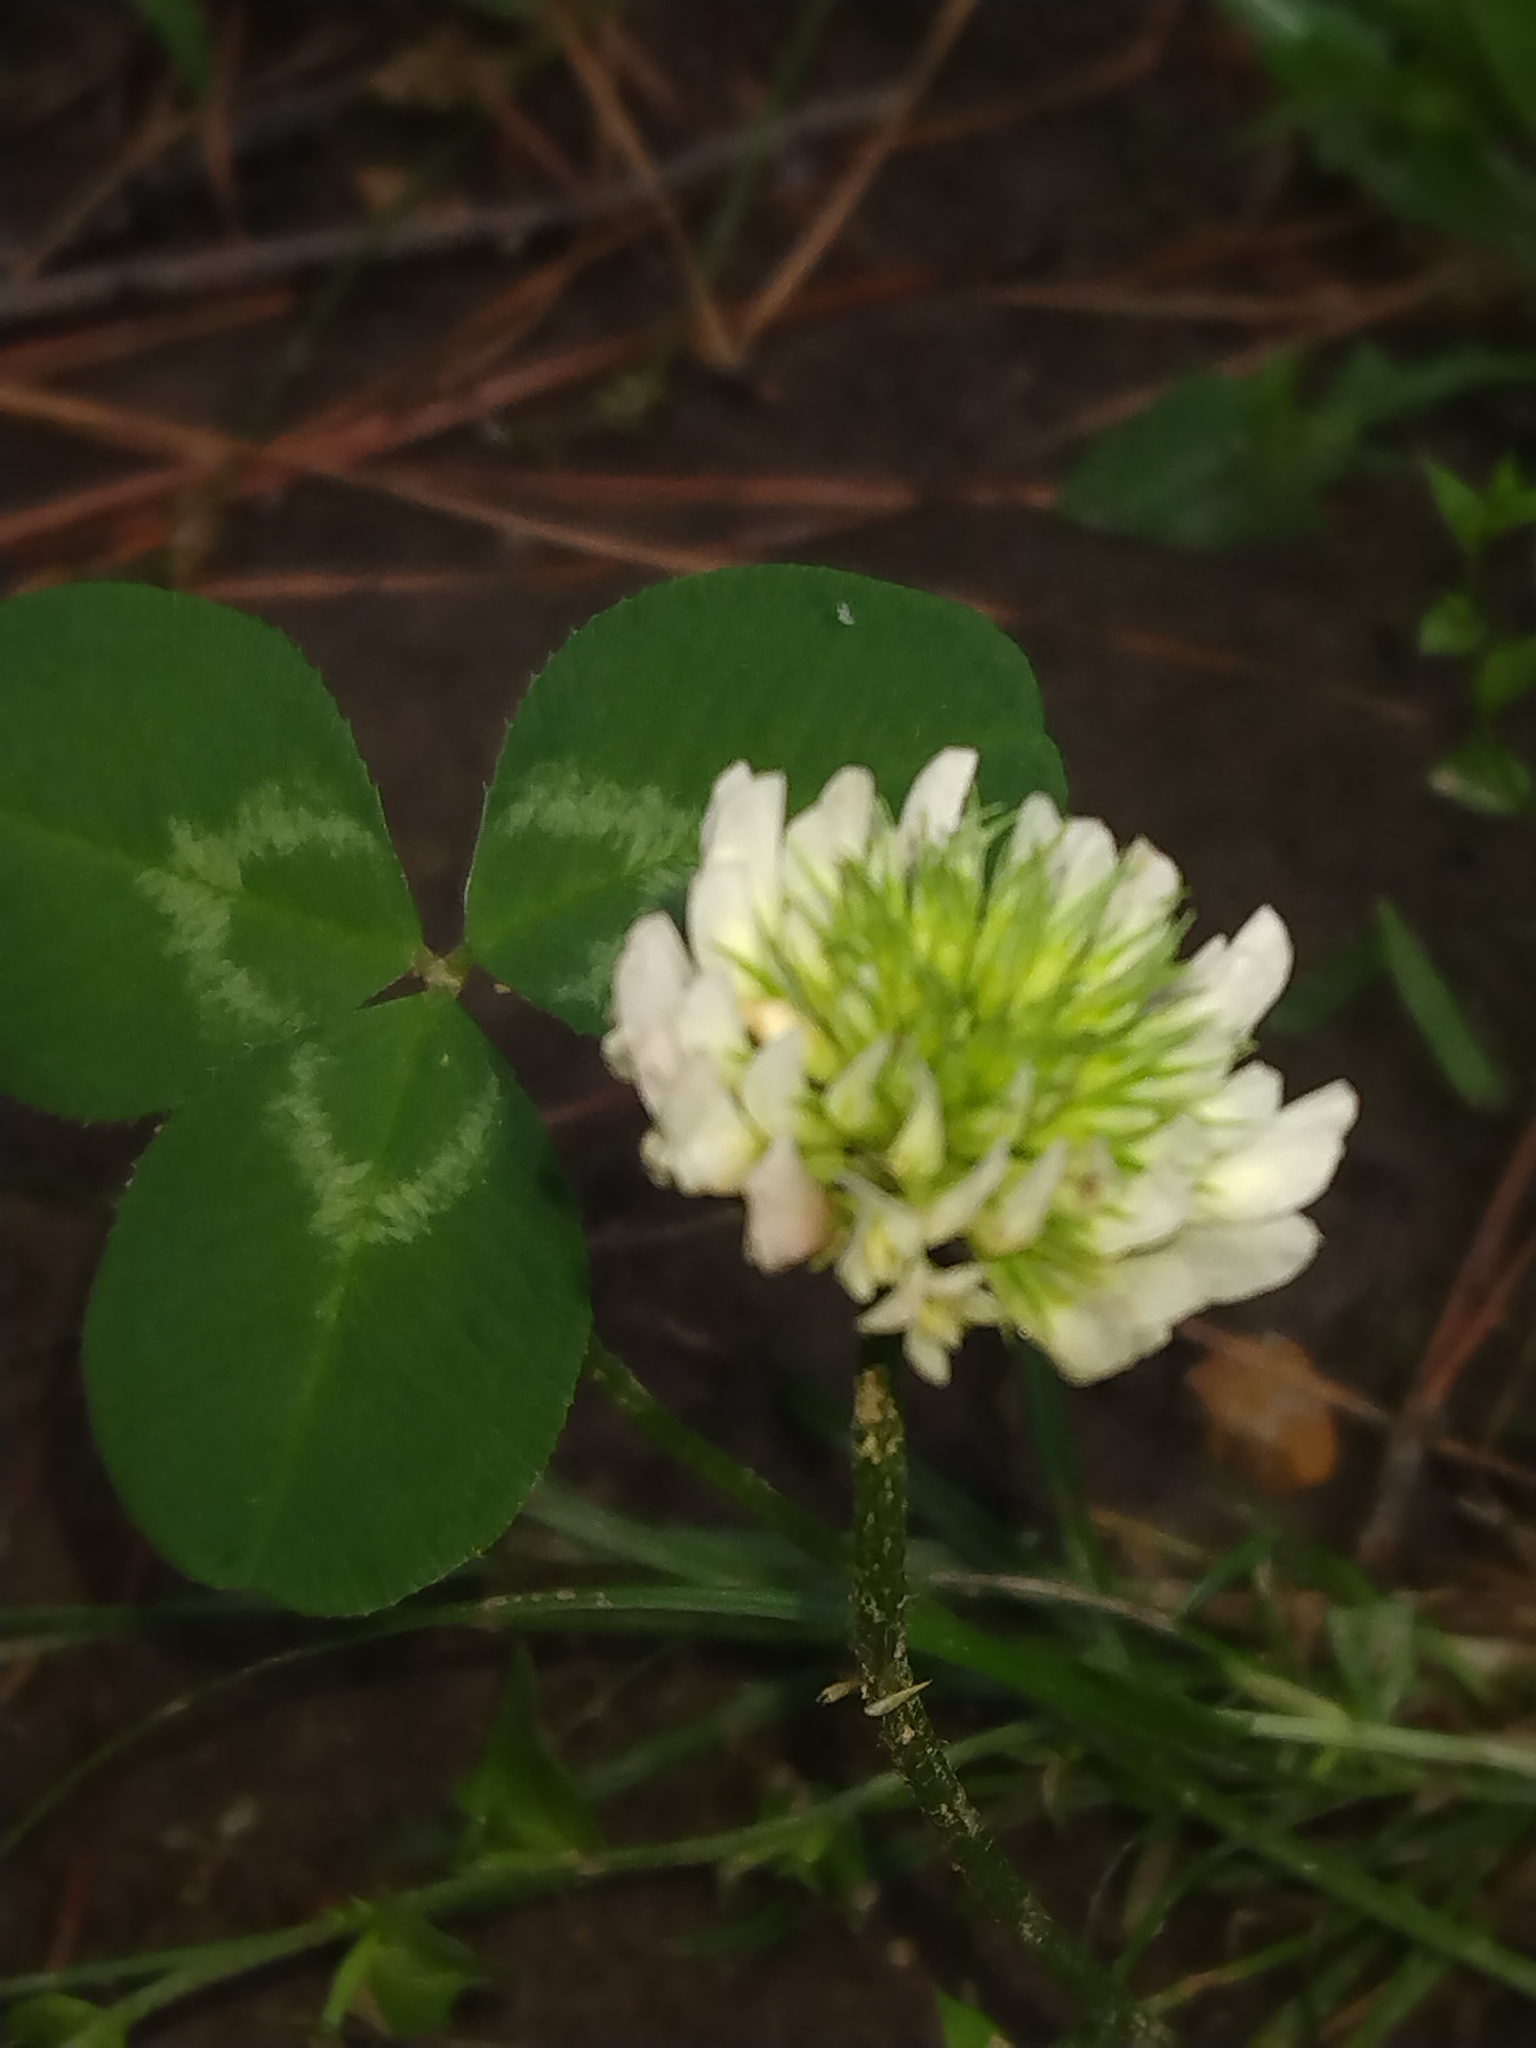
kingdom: Plantae
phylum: Tracheophyta
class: Magnoliopsida
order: Fabales
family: Fabaceae
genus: Trifolium
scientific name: Trifolium repens
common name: White clover
